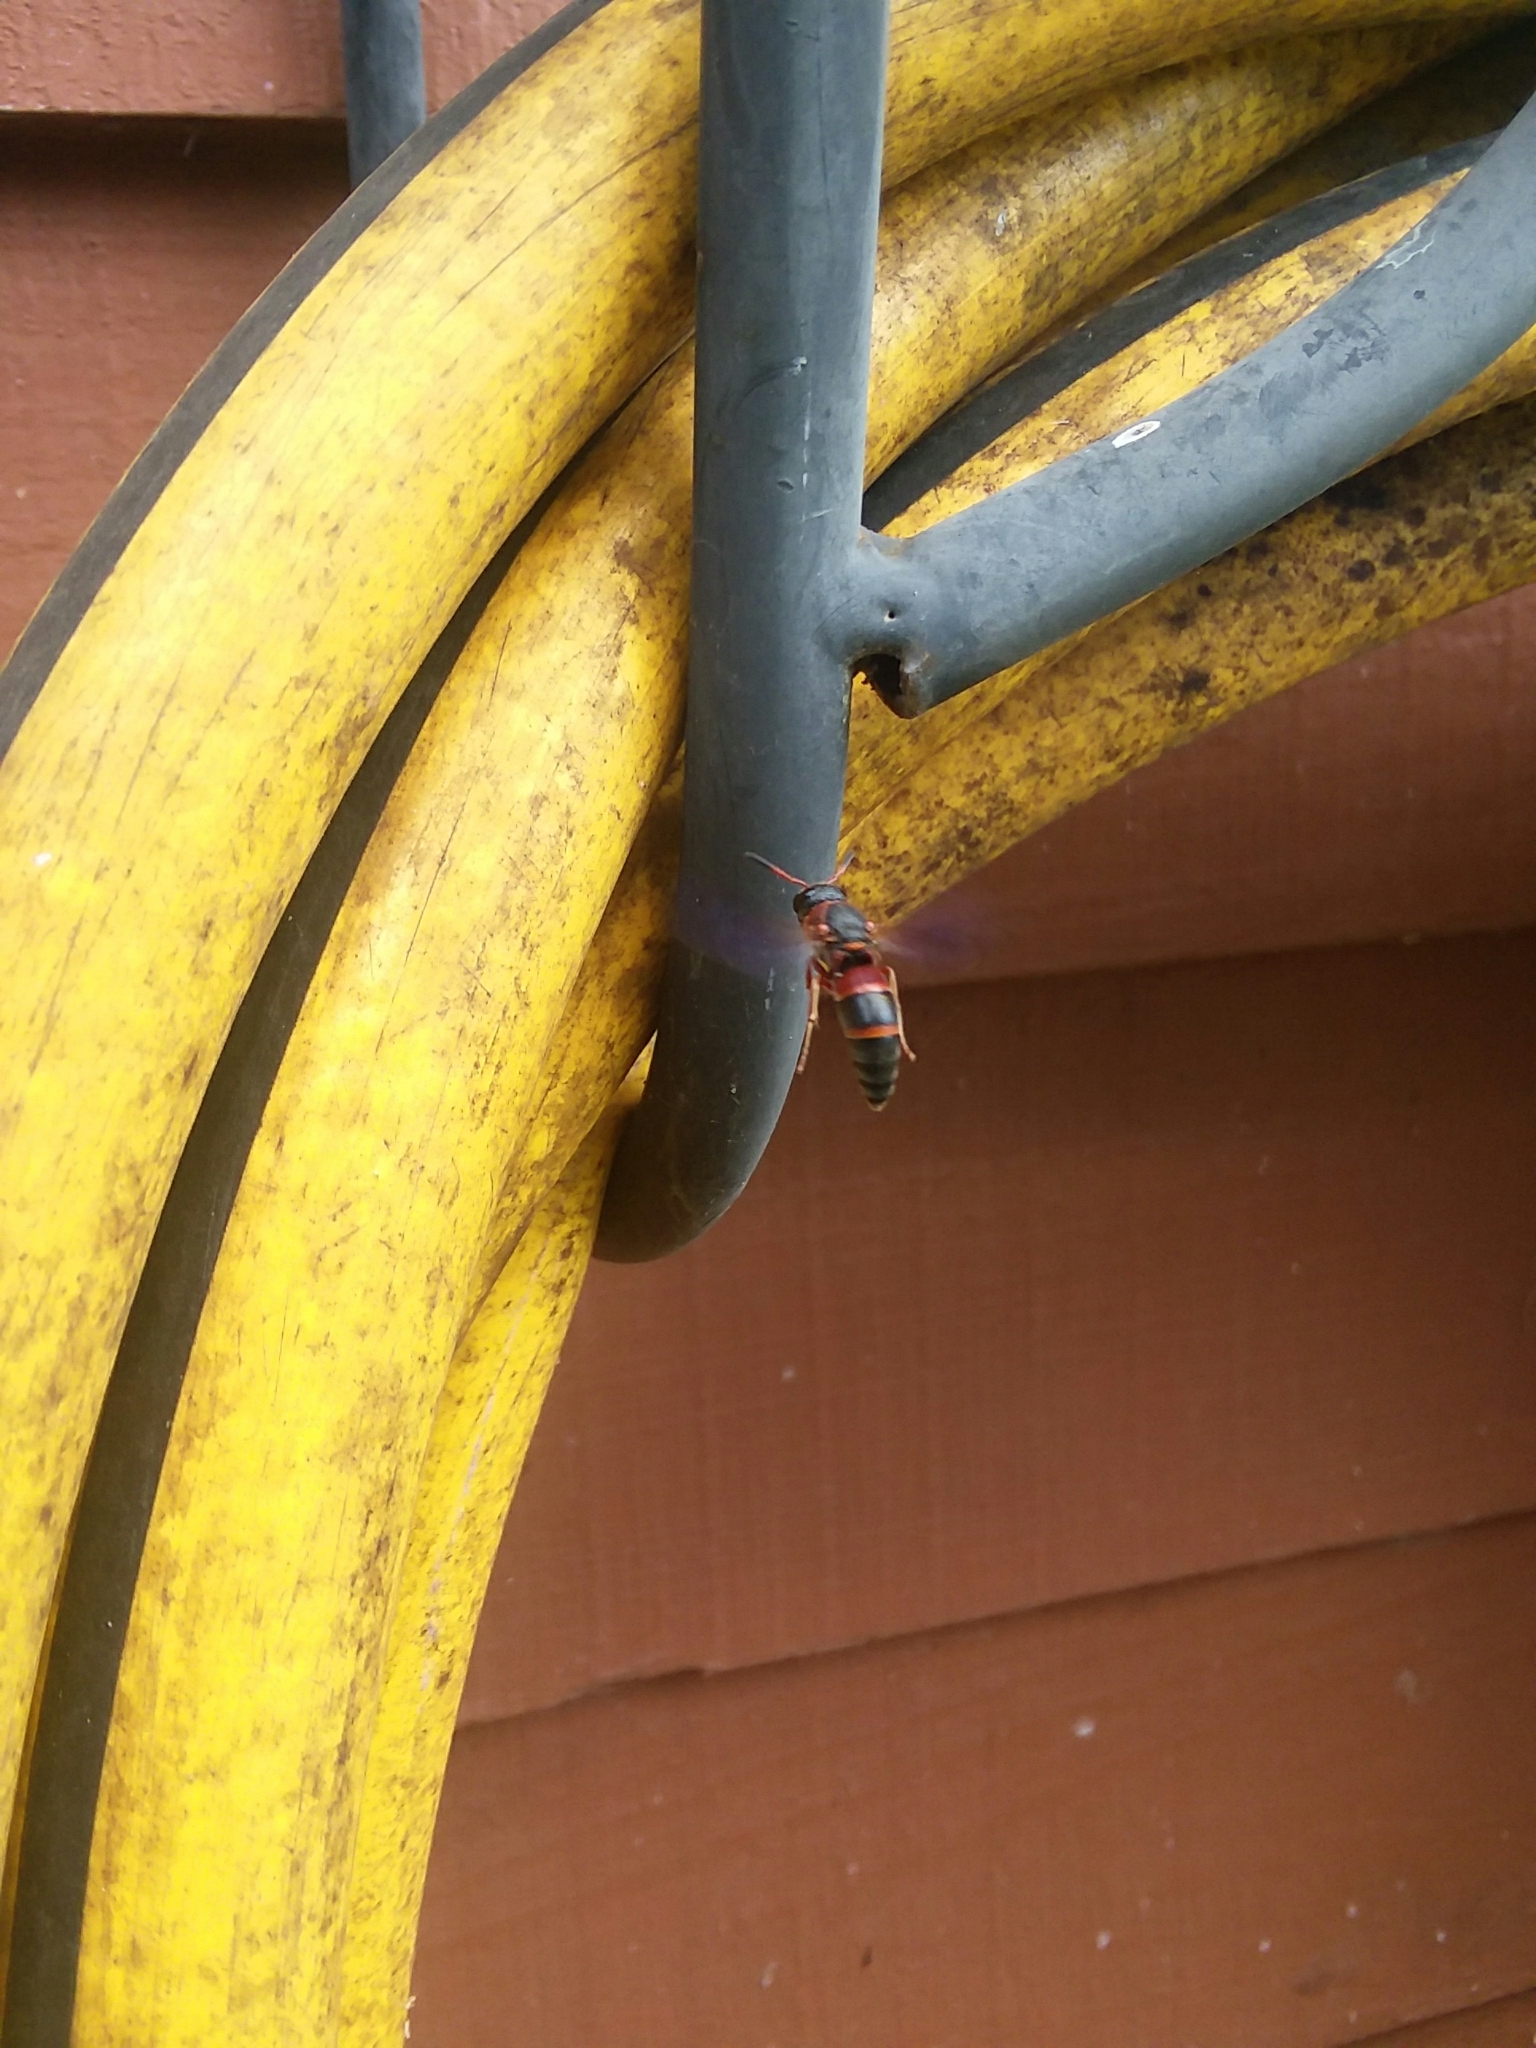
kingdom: Animalia
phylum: Arthropoda
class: Insecta
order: Hymenoptera
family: Eumenidae
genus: Pachodynerus
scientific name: Pachodynerus erynnis
